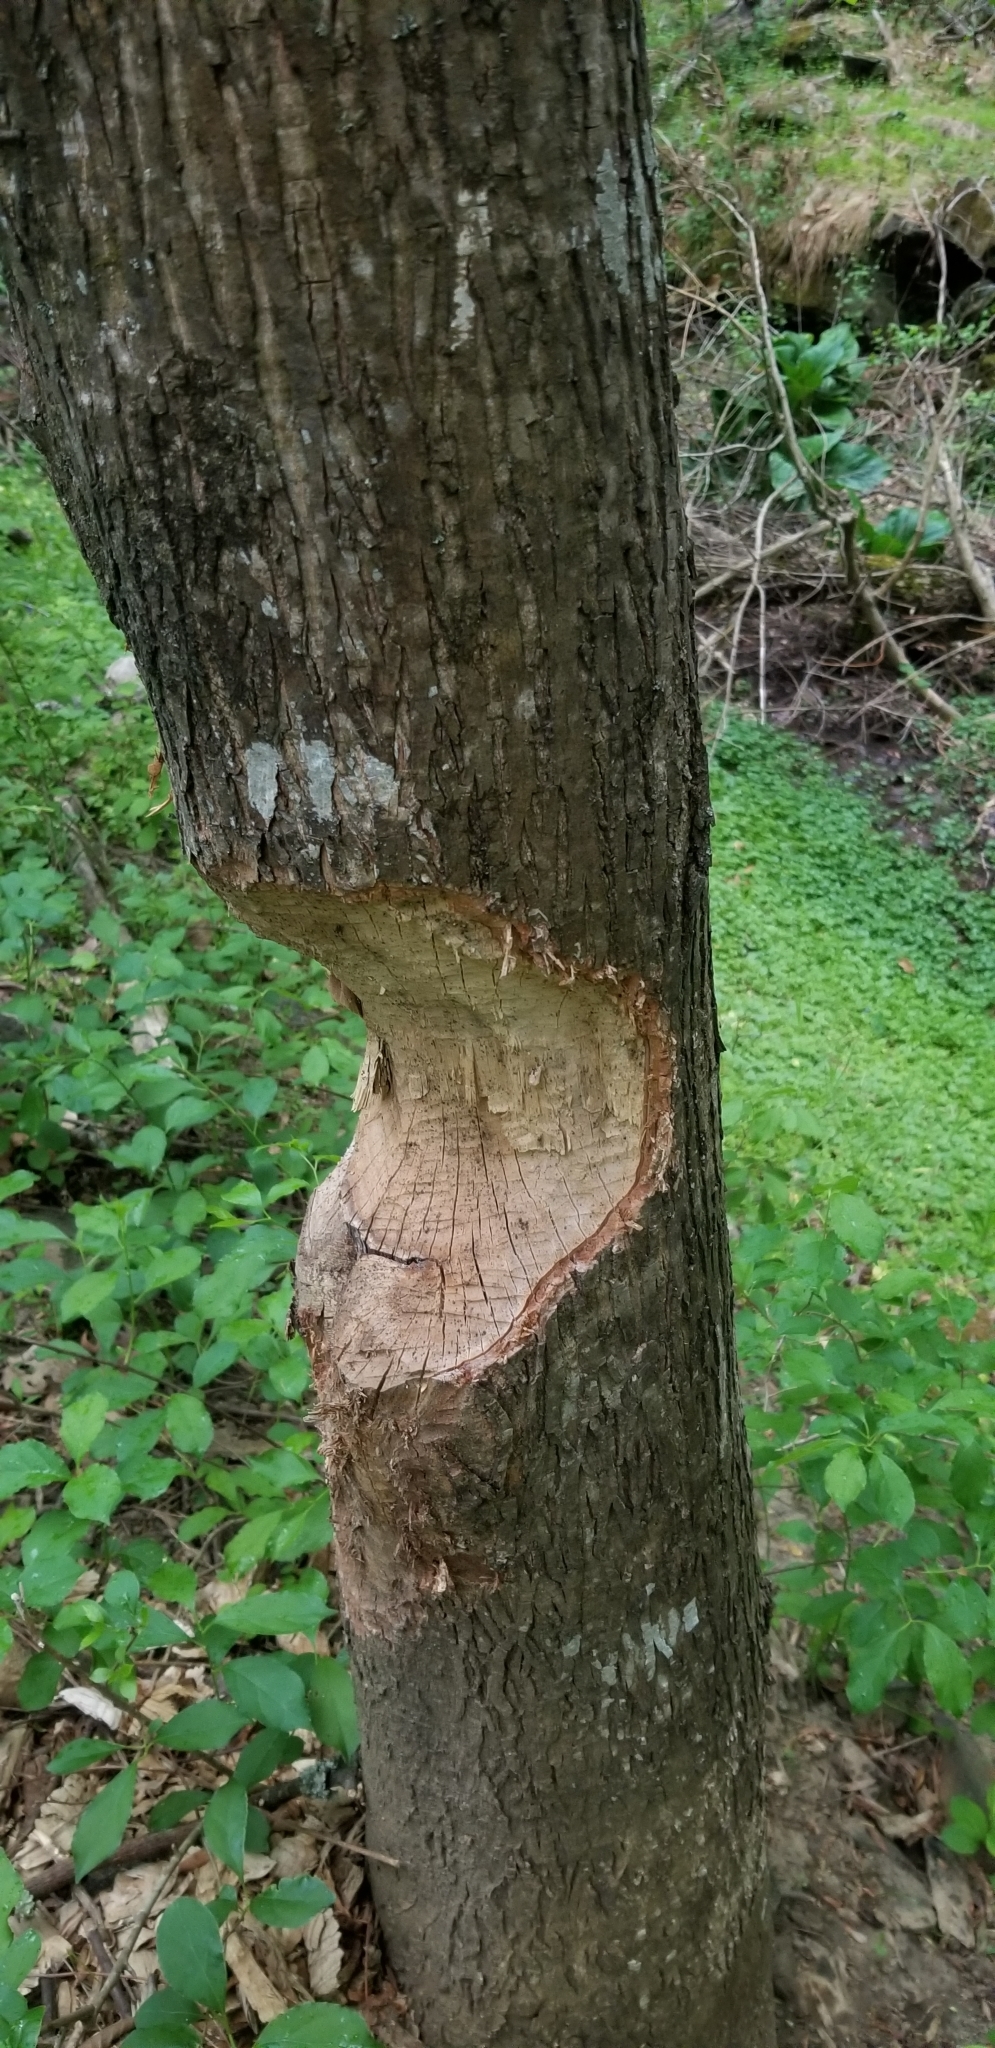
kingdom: Animalia
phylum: Chordata
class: Mammalia
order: Rodentia
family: Castoridae
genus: Castor
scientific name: Castor canadensis
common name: American beaver
